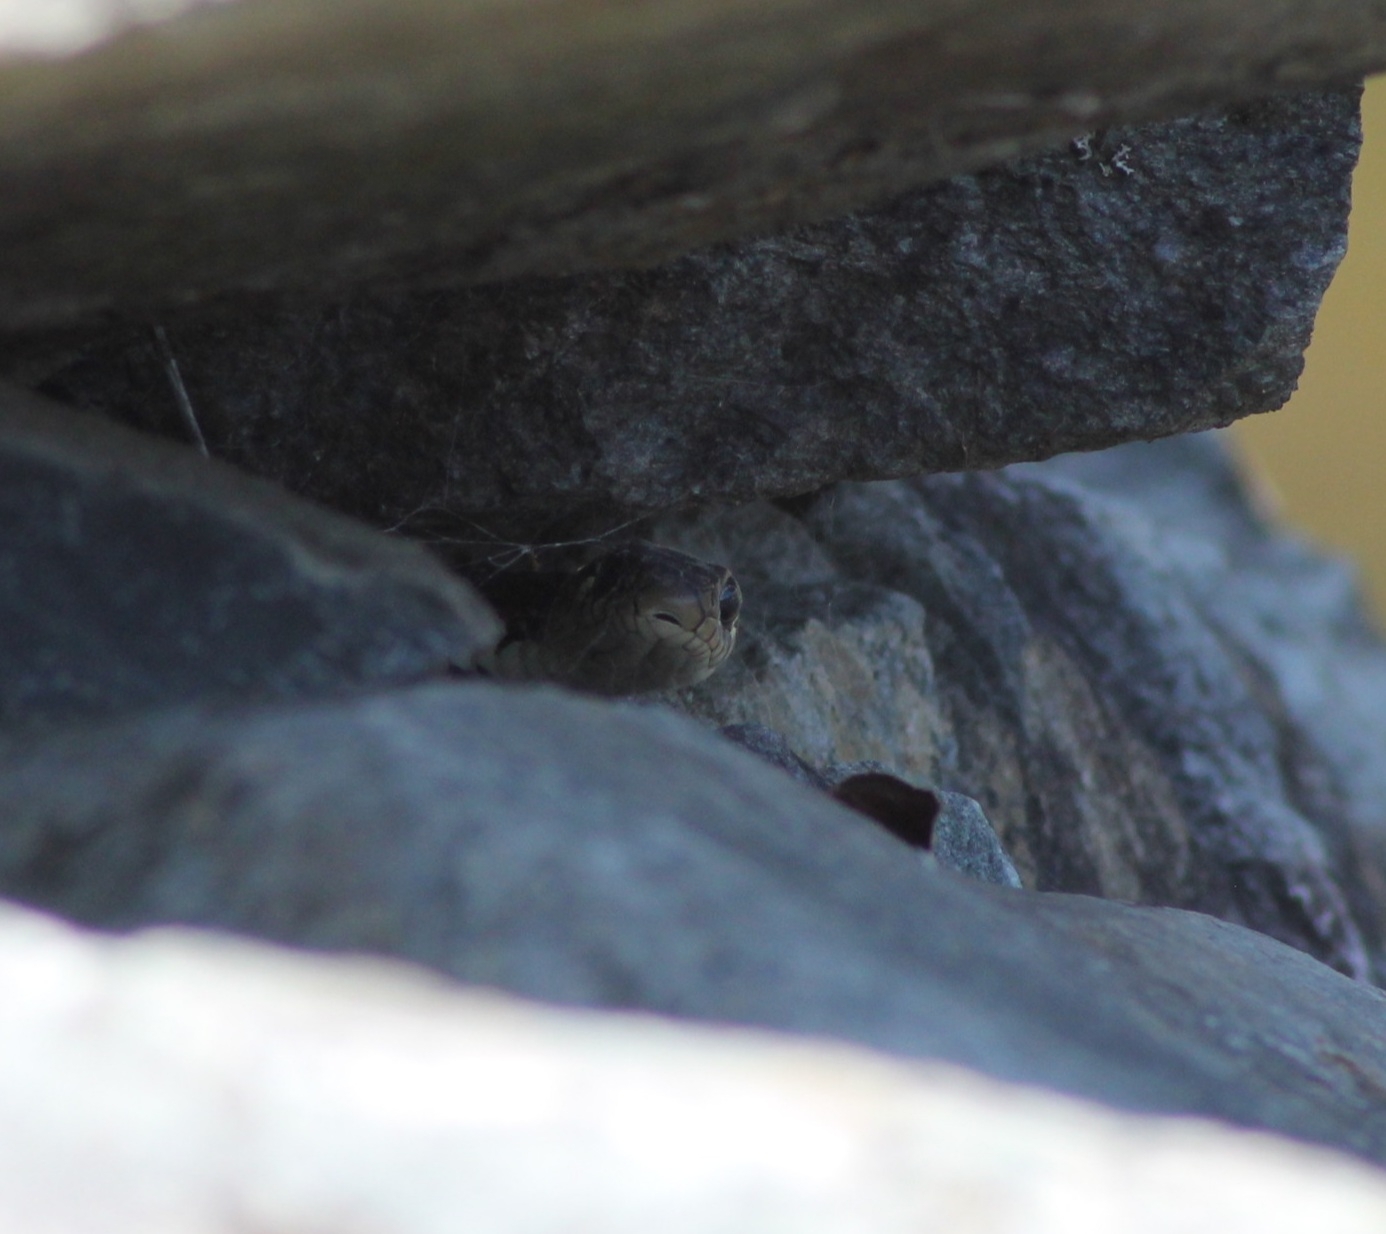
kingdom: Animalia
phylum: Chordata
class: Squamata
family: Colubridae
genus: Natrix
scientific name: Natrix natrix
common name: Grass snake
